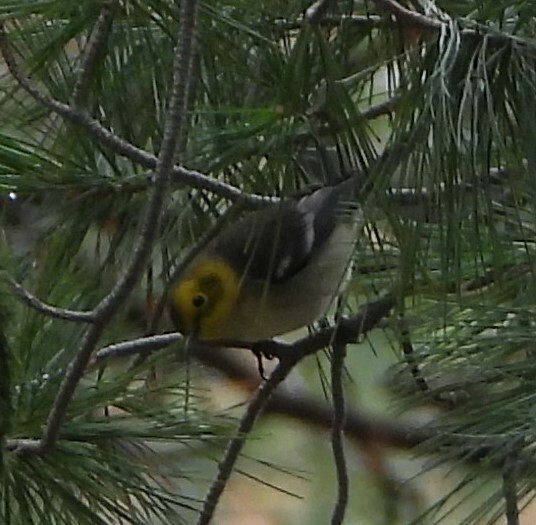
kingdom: Animalia
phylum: Chordata
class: Aves
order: Passeriformes
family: Parulidae
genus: Setophaga
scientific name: Setophaga
